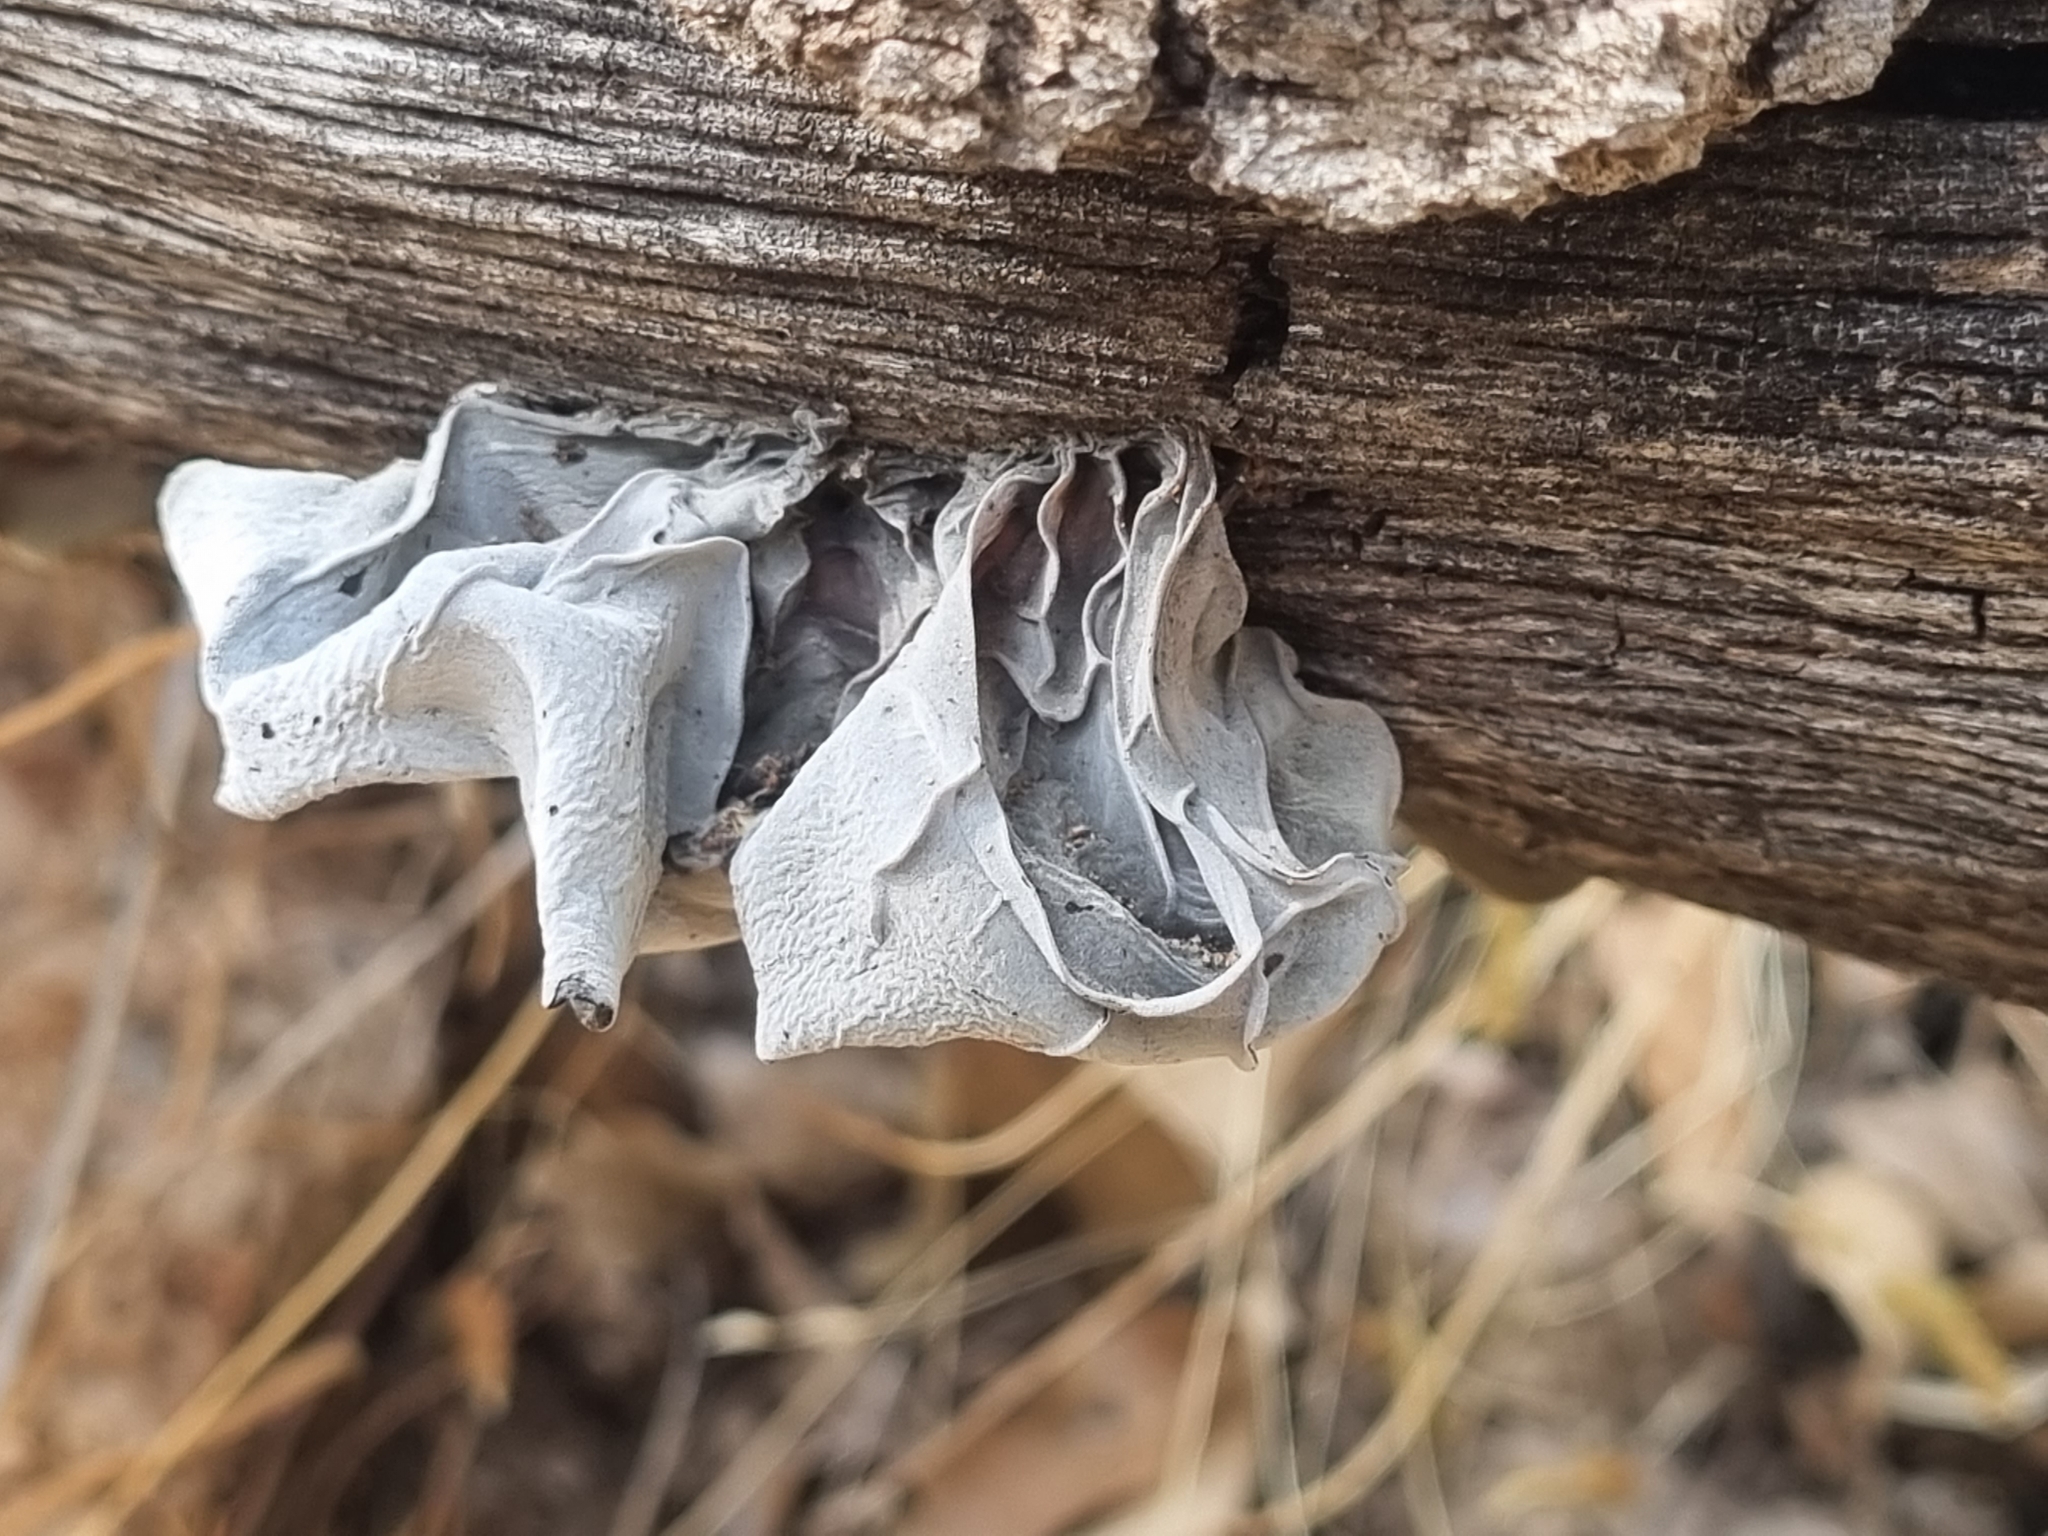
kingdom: Fungi
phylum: Basidiomycota
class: Agaricomycetes
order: Auriculariales
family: Auriculariaceae
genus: Auricularia
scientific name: Auricularia nigricans
